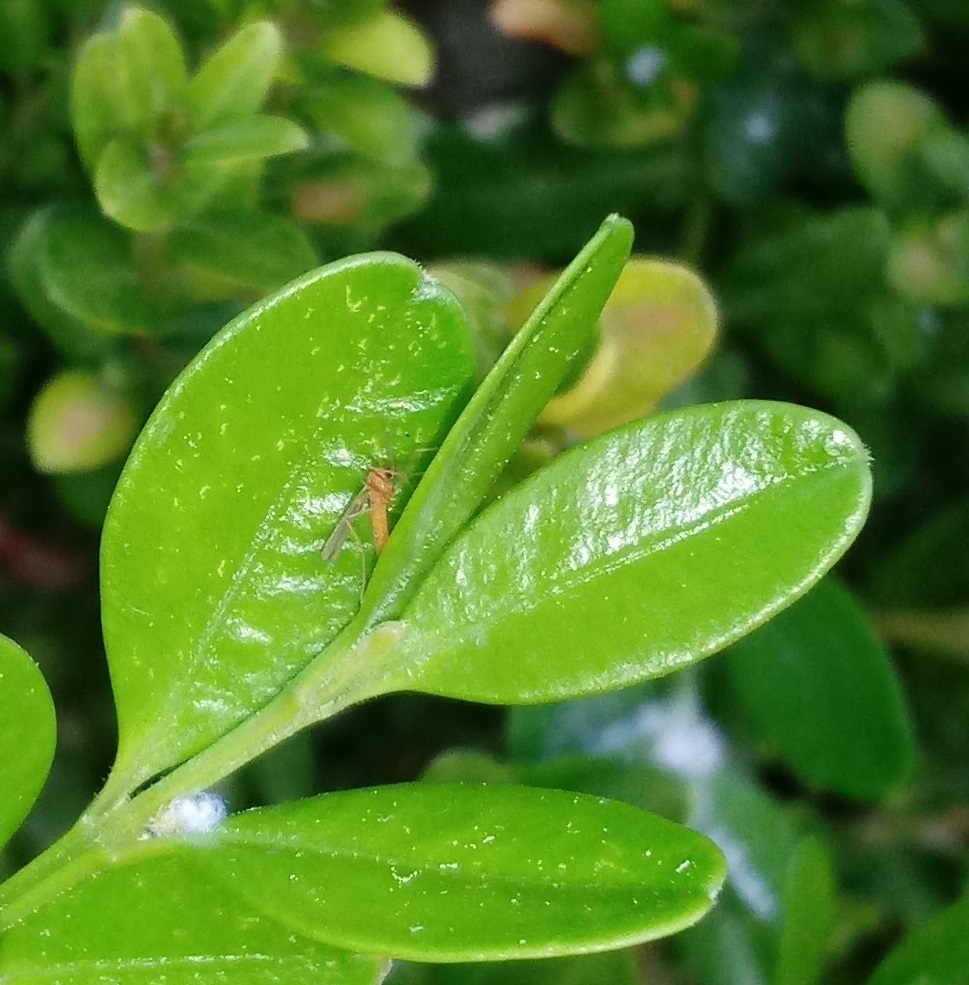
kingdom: Animalia
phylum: Arthropoda
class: Insecta
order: Diptera
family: Cecidomyiidae
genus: Monarthropalpus
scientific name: Monarthropalpus flavus
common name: Boxwood leafminer
